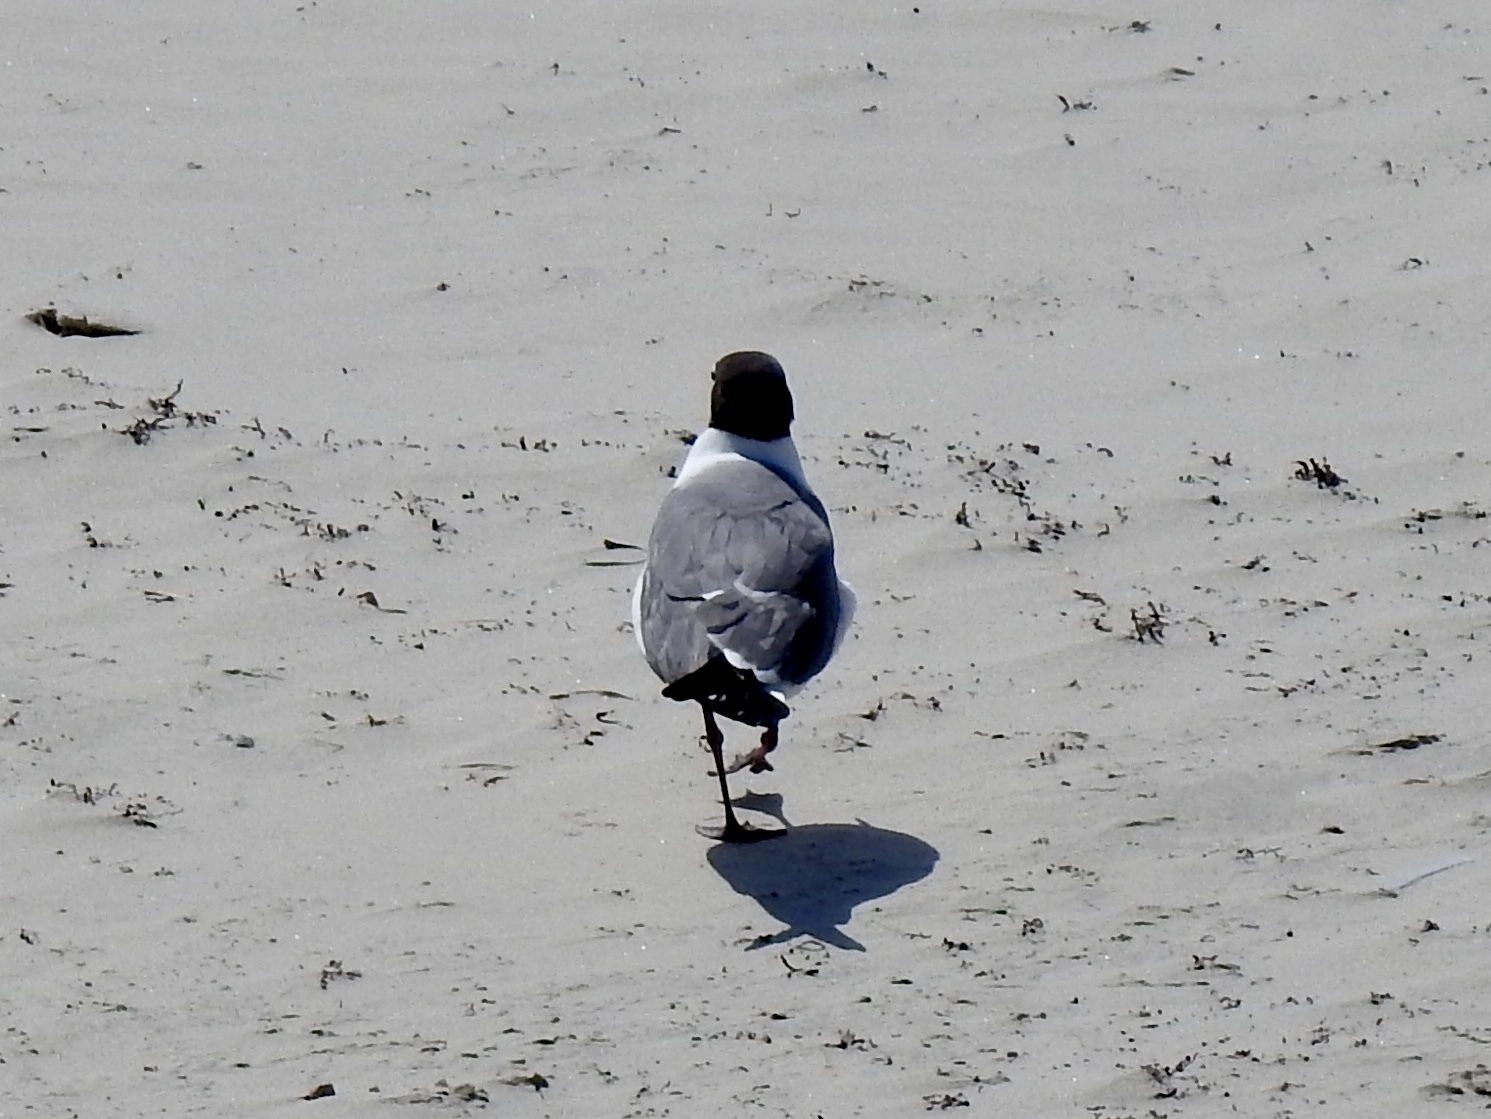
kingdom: Animalia
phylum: Chordata
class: Aves
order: Charadriiformes
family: Laridae
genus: Leucophaeus
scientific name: Leucophaeus atricilla
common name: Laughing gull
